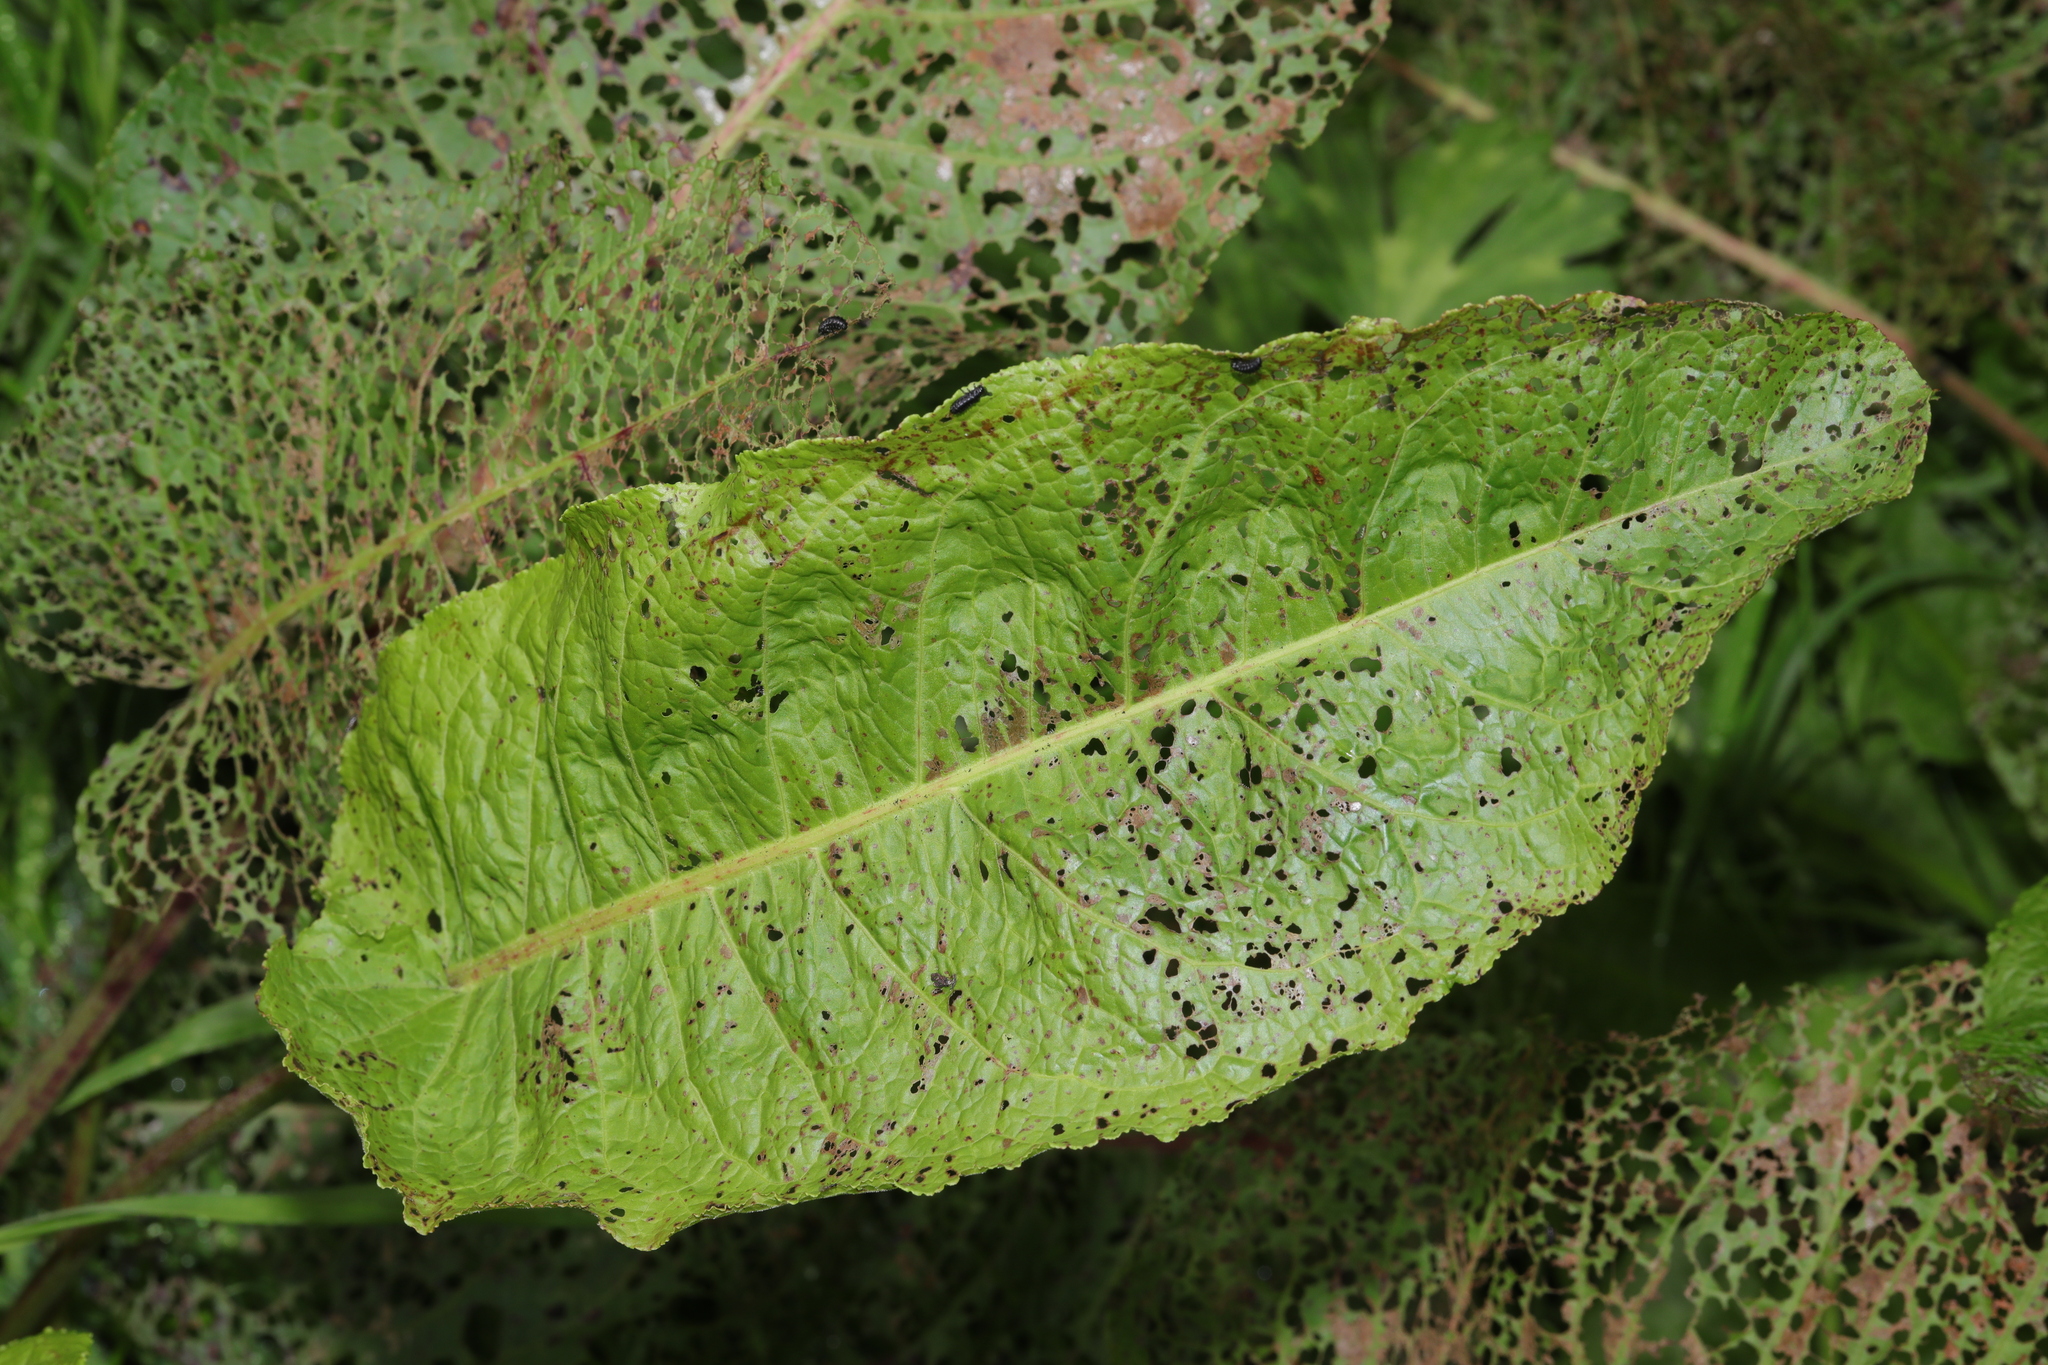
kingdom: Plantae
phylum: Tracheophyta
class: Magnoliopsida
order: Caryophyllales
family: Polygonaceae
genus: Rumex
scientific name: Rumex obtusifolius
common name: Bitter dock
